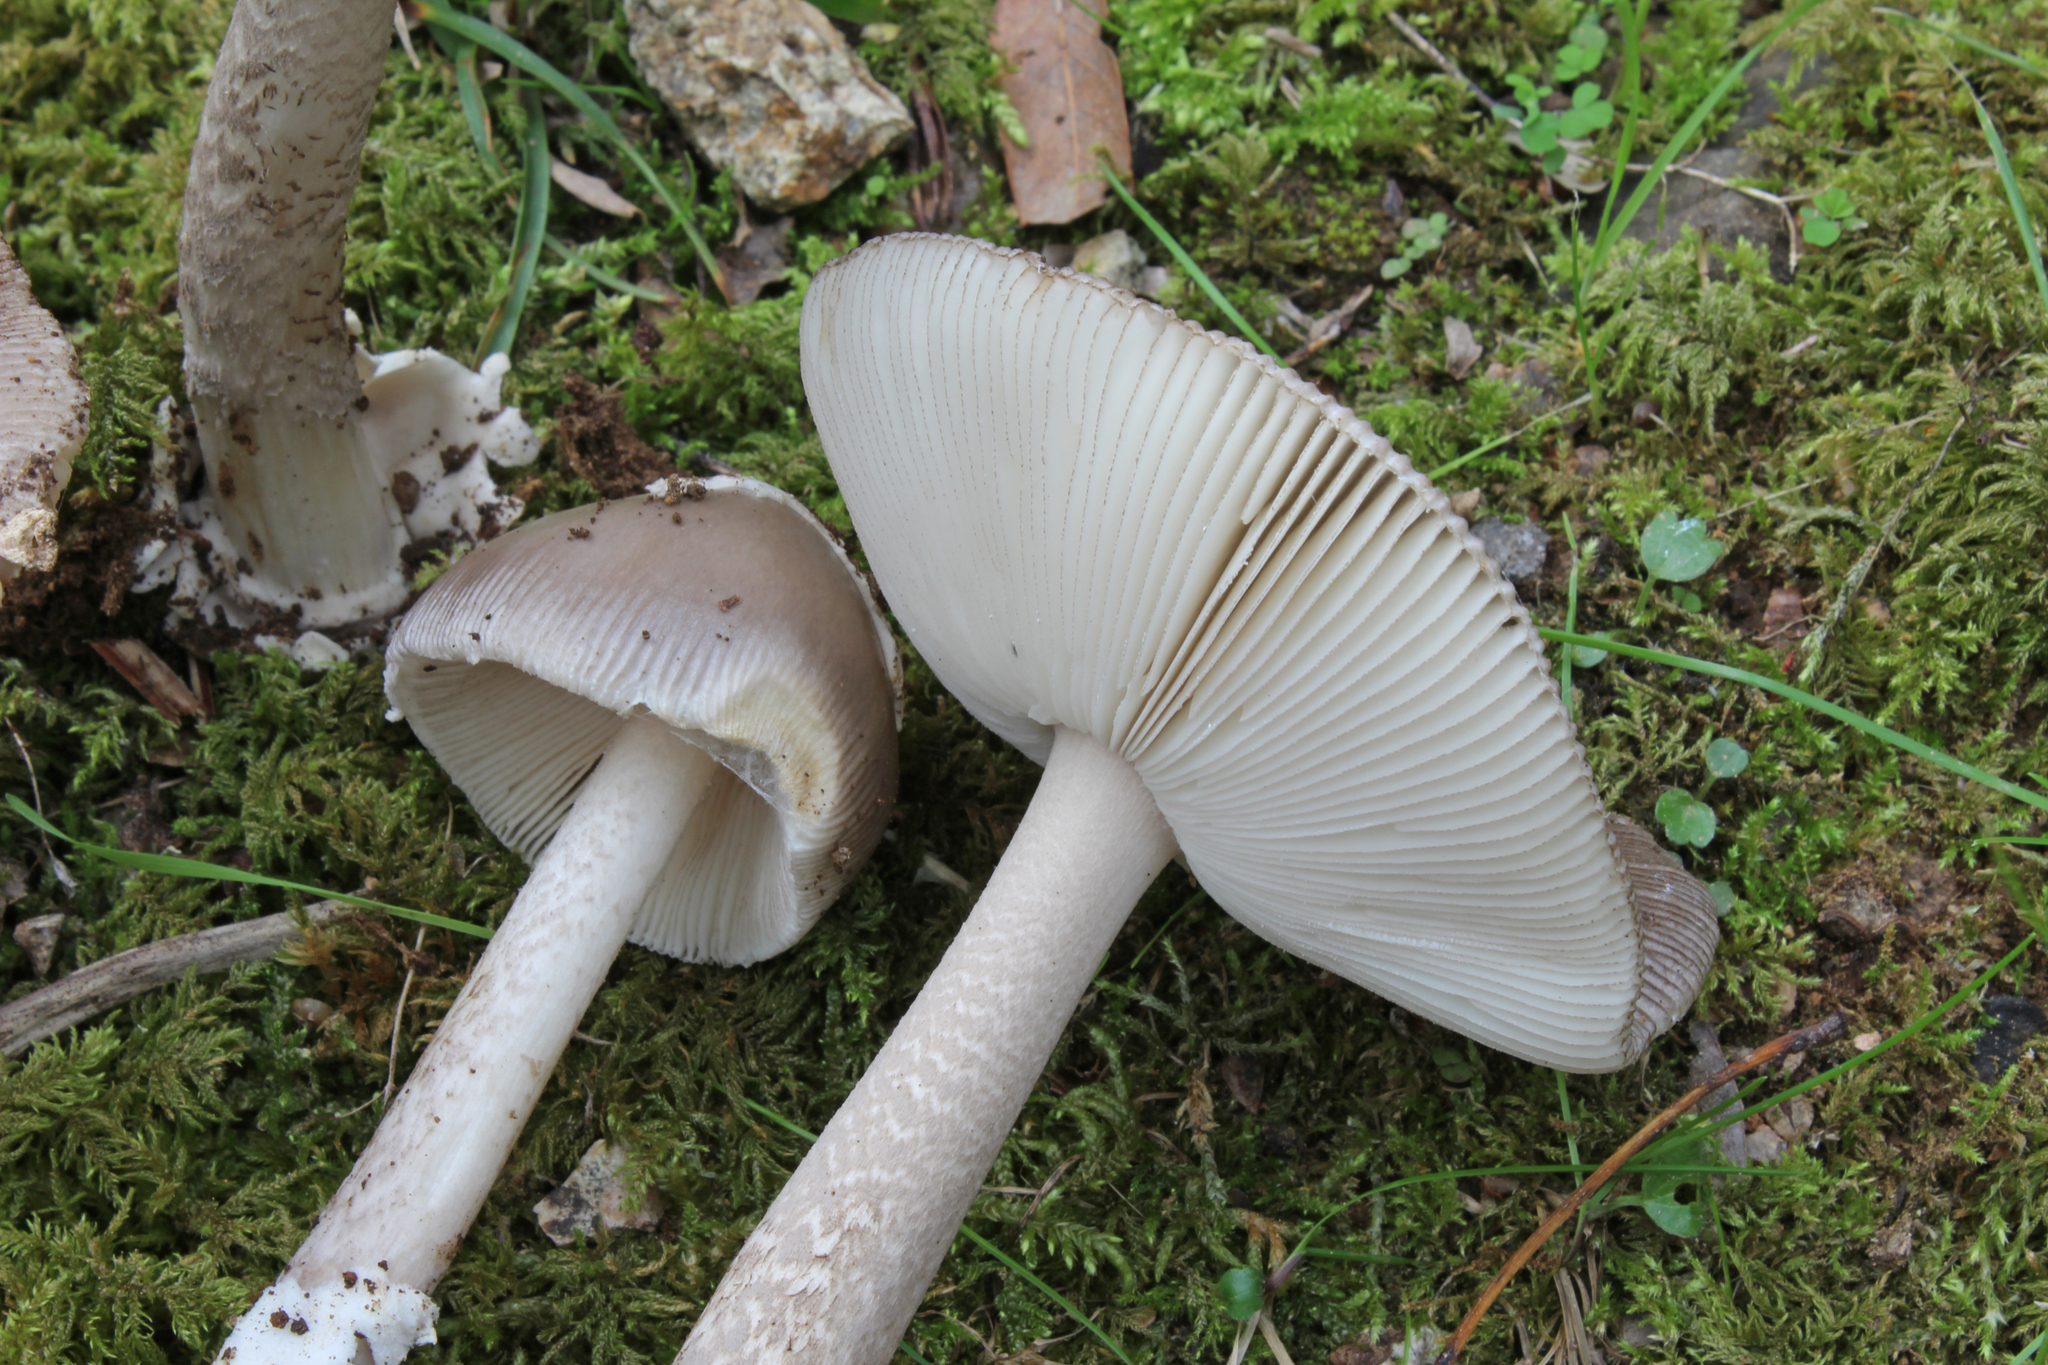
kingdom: Fungi
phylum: Basidiomycota
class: Agaricomycetes
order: Agaricales
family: Amanitaceae
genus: Amanita
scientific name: Amanita simulans
